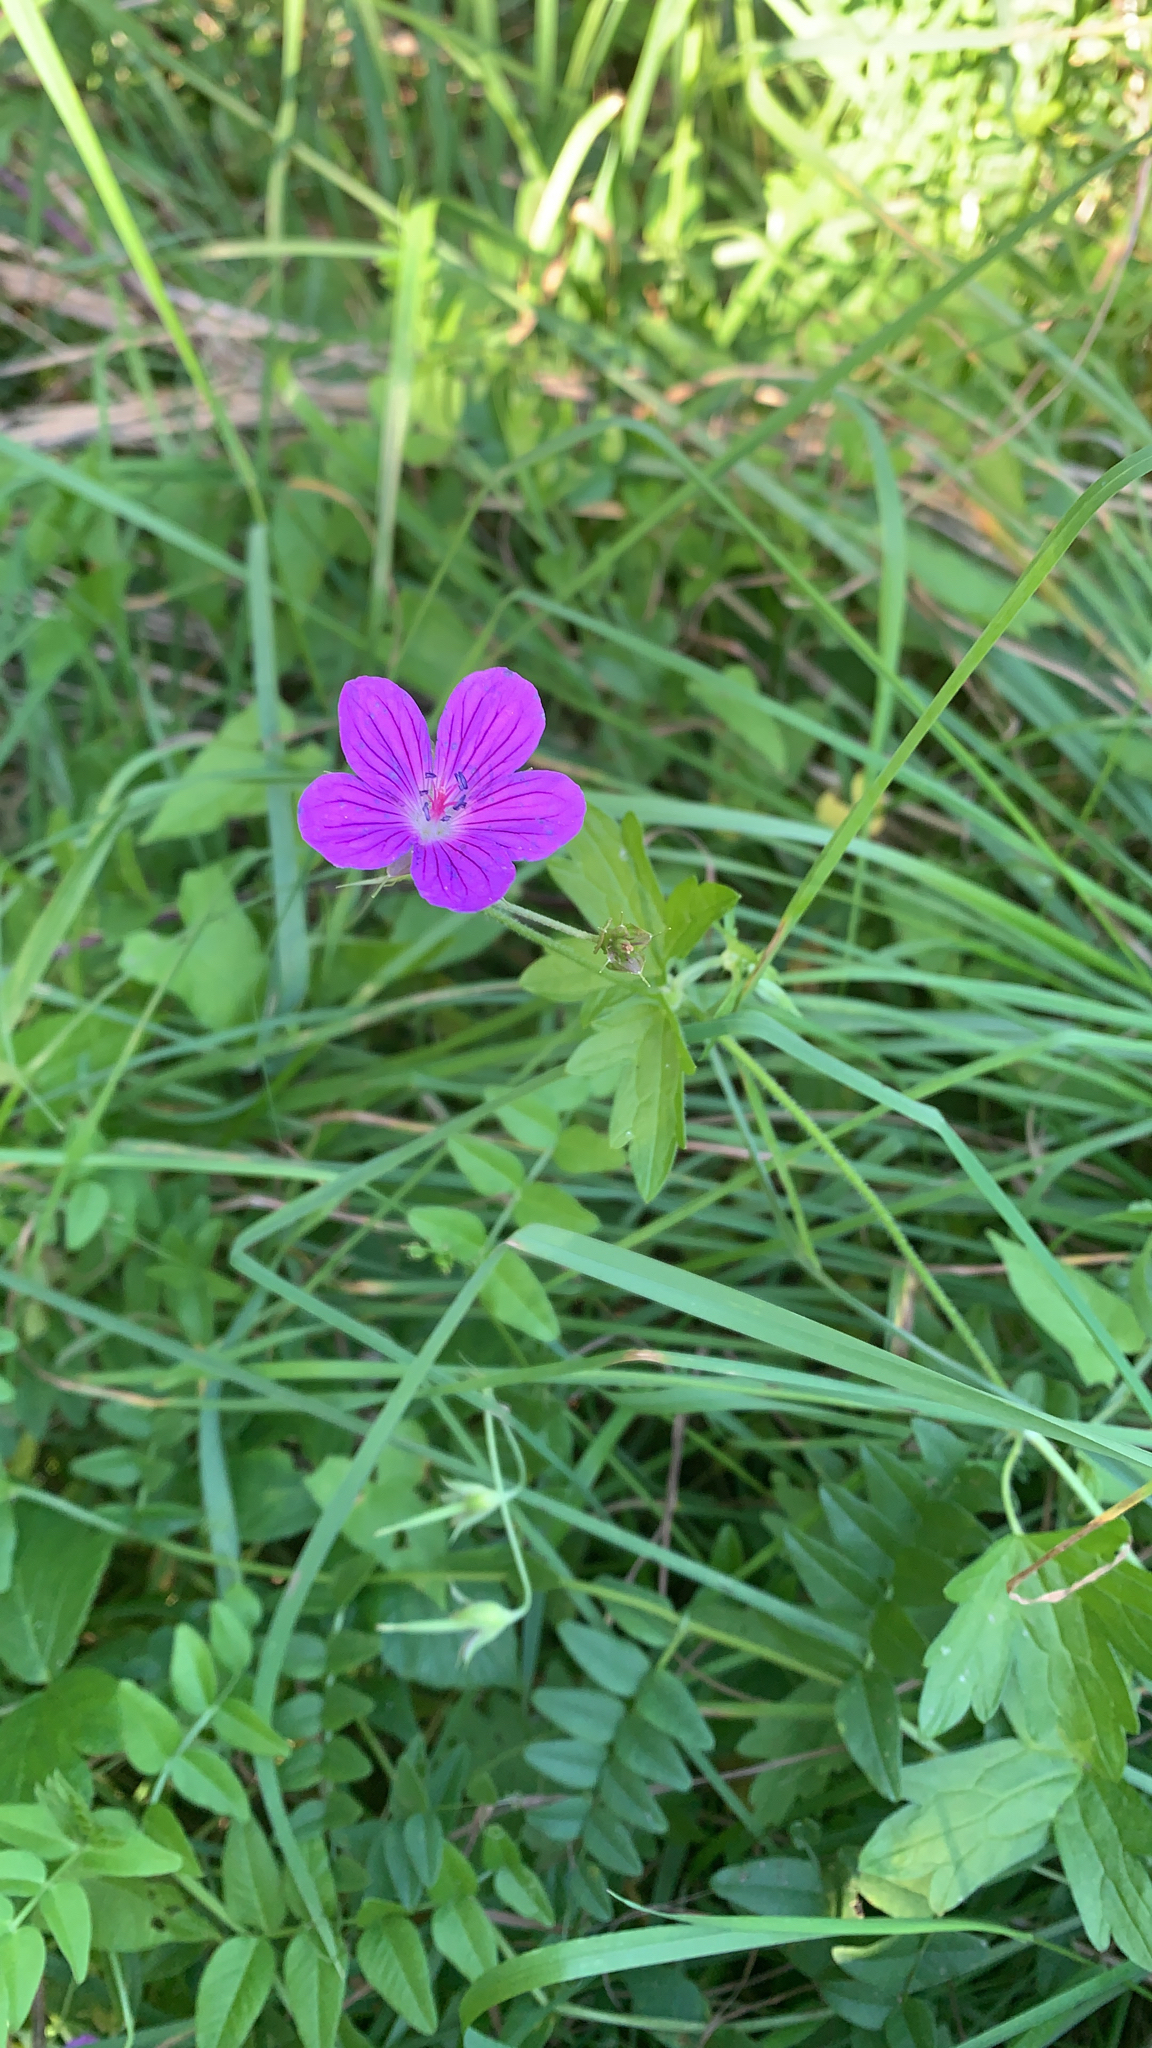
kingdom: Plantae
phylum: Tracheophyta
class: Magnoliopsida
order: Geraniales
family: Geraniaceae
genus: Geranium
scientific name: Geranium palustre
